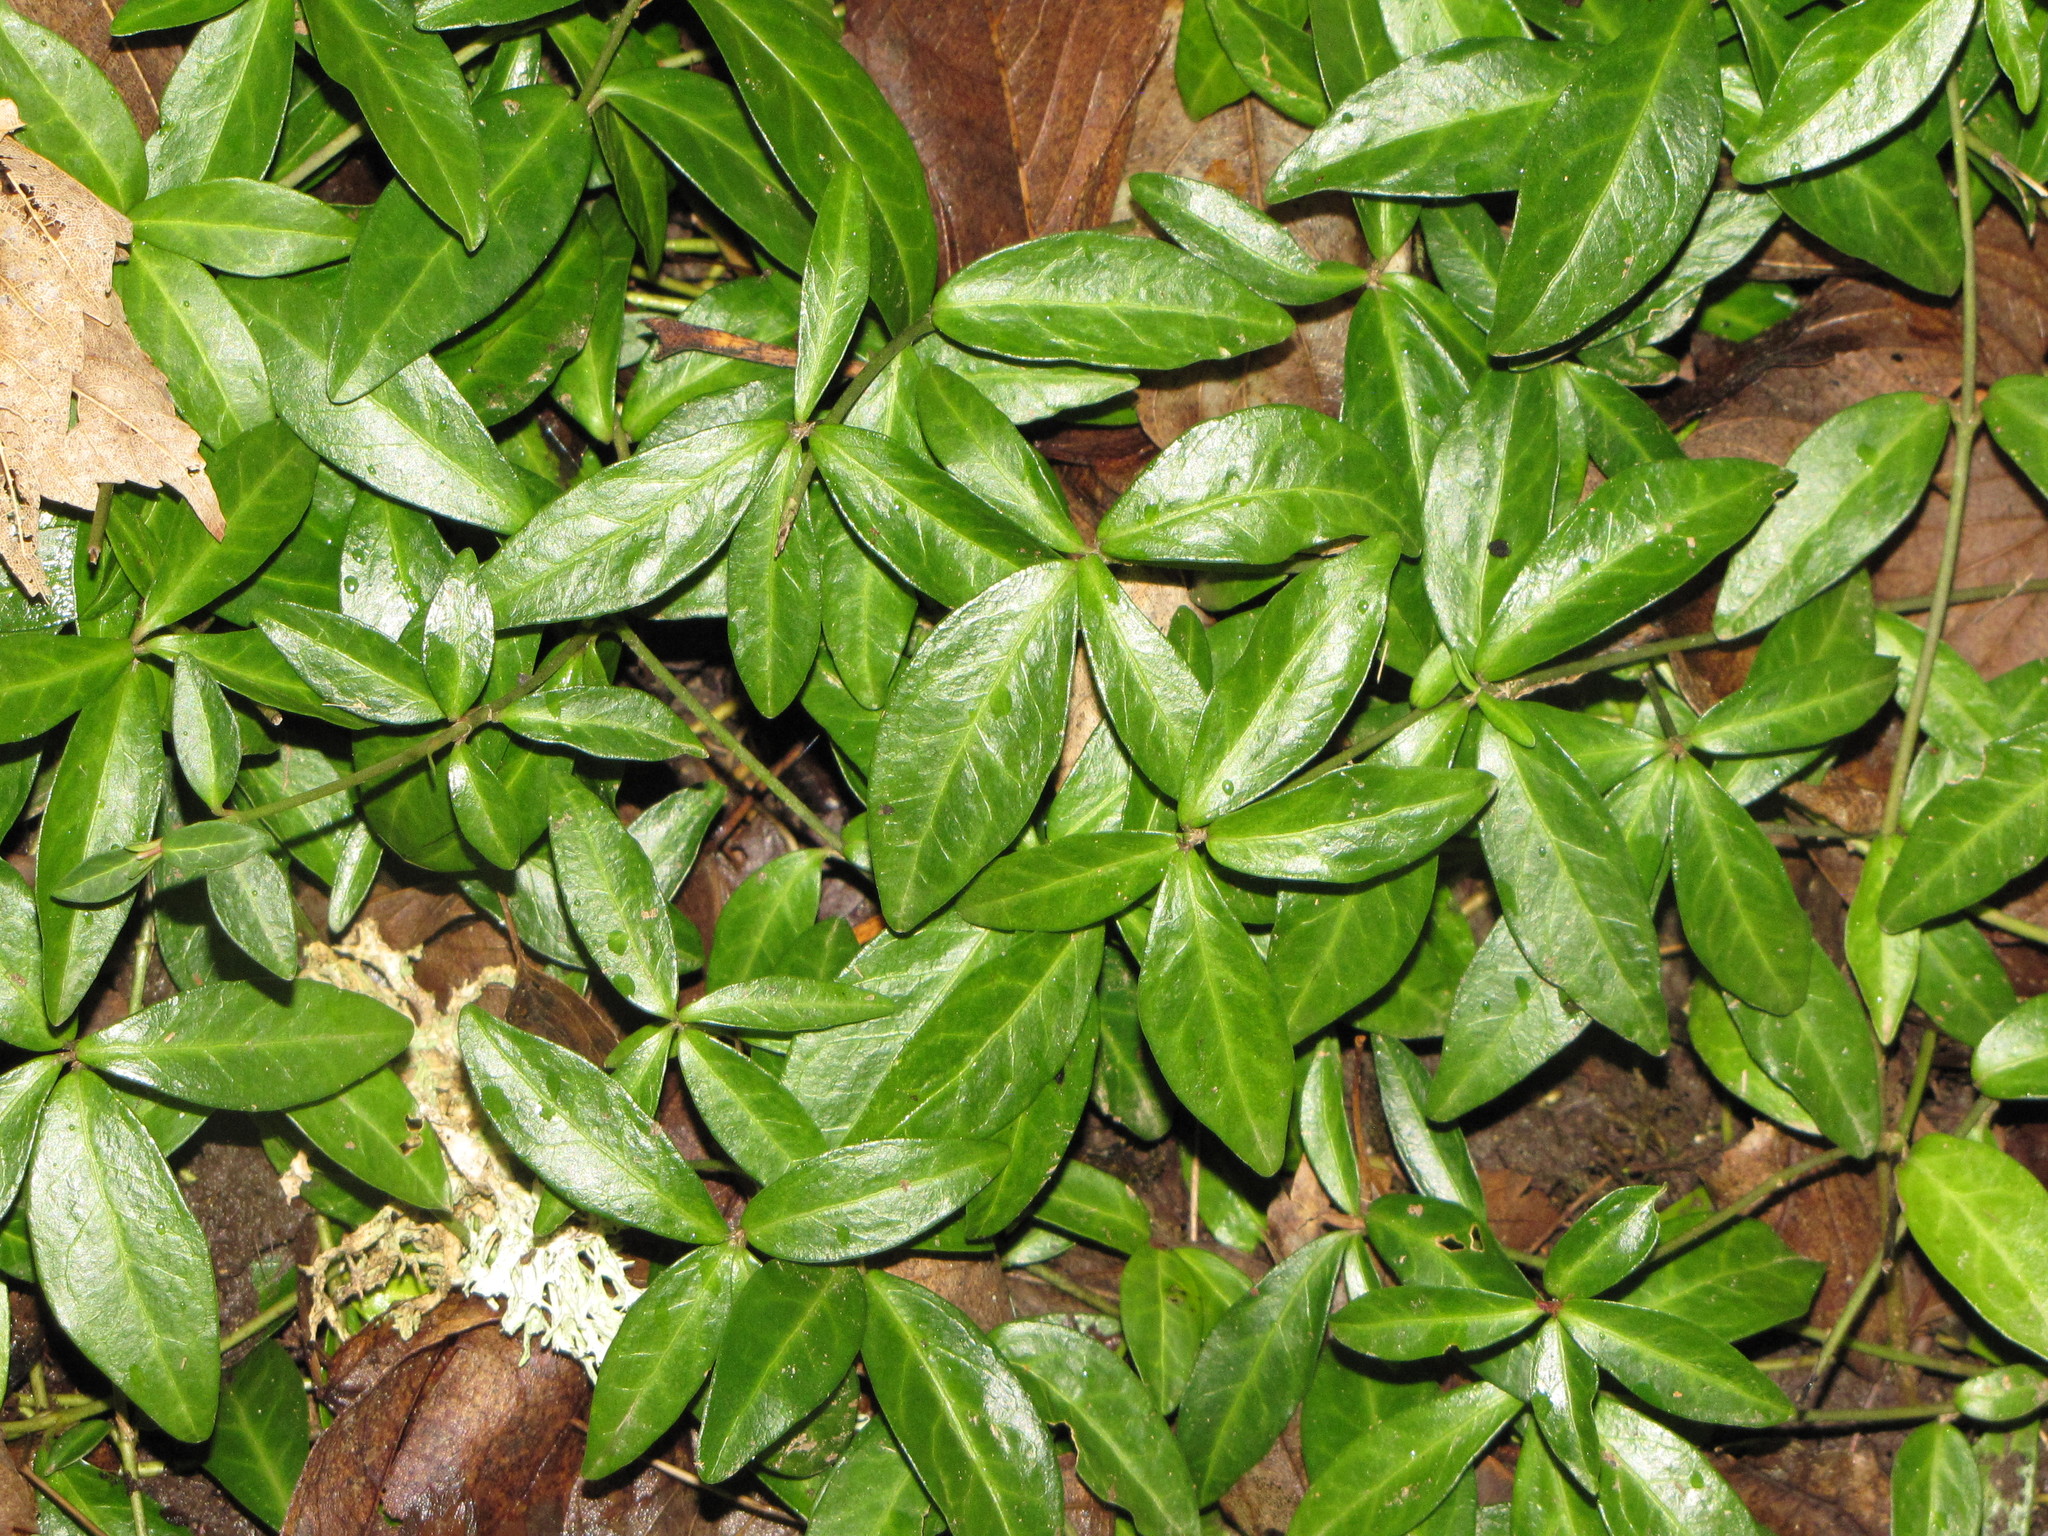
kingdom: Plantae
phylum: Tracheophyta
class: Magnoliopsida
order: Gentianales
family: Apocynaceae
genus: Vinca
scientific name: Vinca minor
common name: Lesser periwinkle
